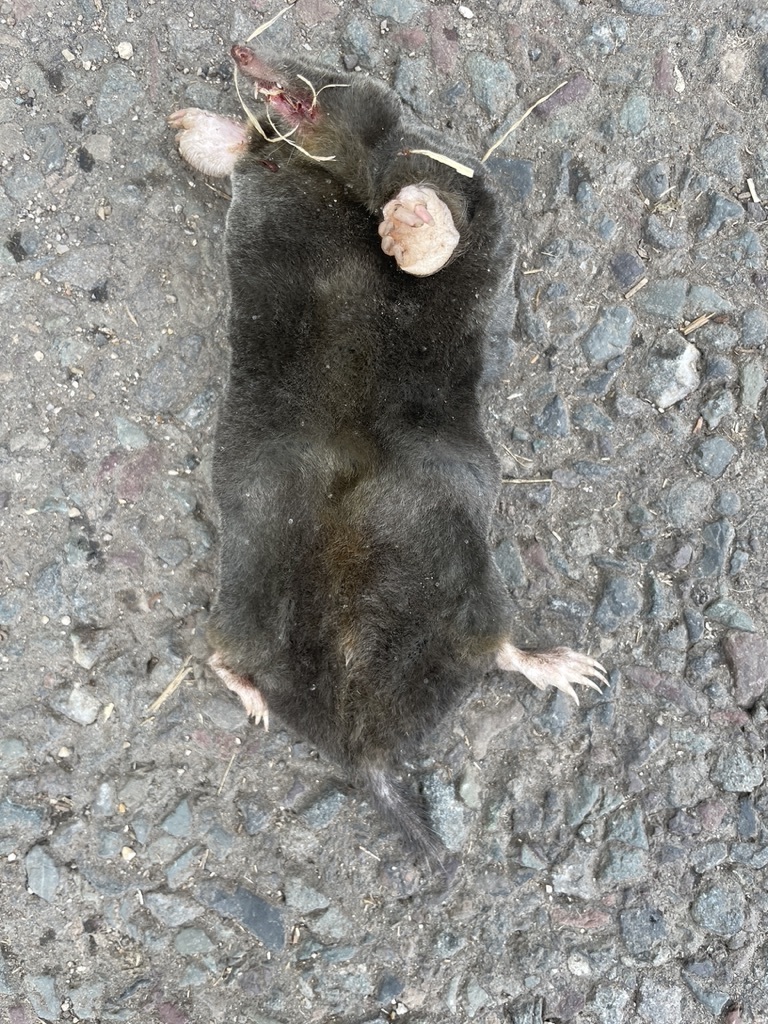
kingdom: Animalia
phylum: Chordata
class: Mammalia
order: Soricomorpha
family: Talpidae
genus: Talpa
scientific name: Talpa europaea
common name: European mole
